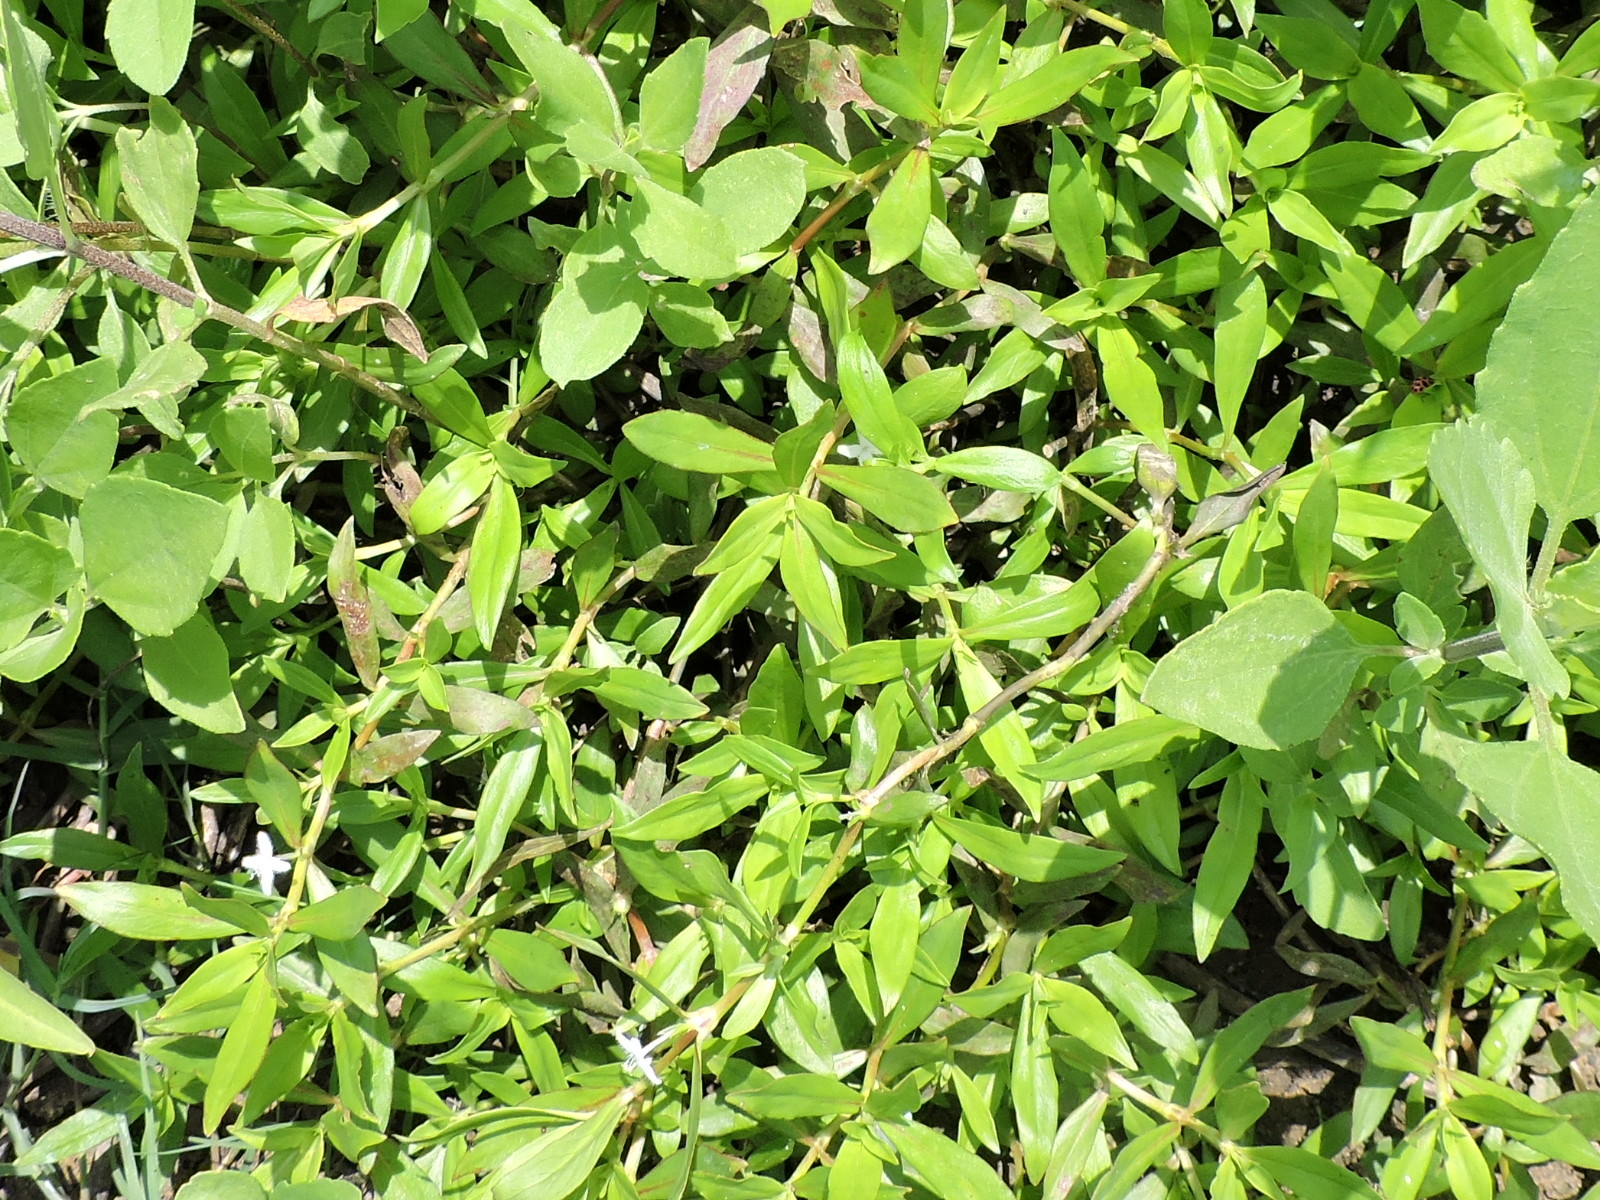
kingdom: Plantae
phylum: Tracheophyta
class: Magnoliopsida
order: Gentianales
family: Rubiaceae
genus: Diodia
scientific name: Diodia virginiana
